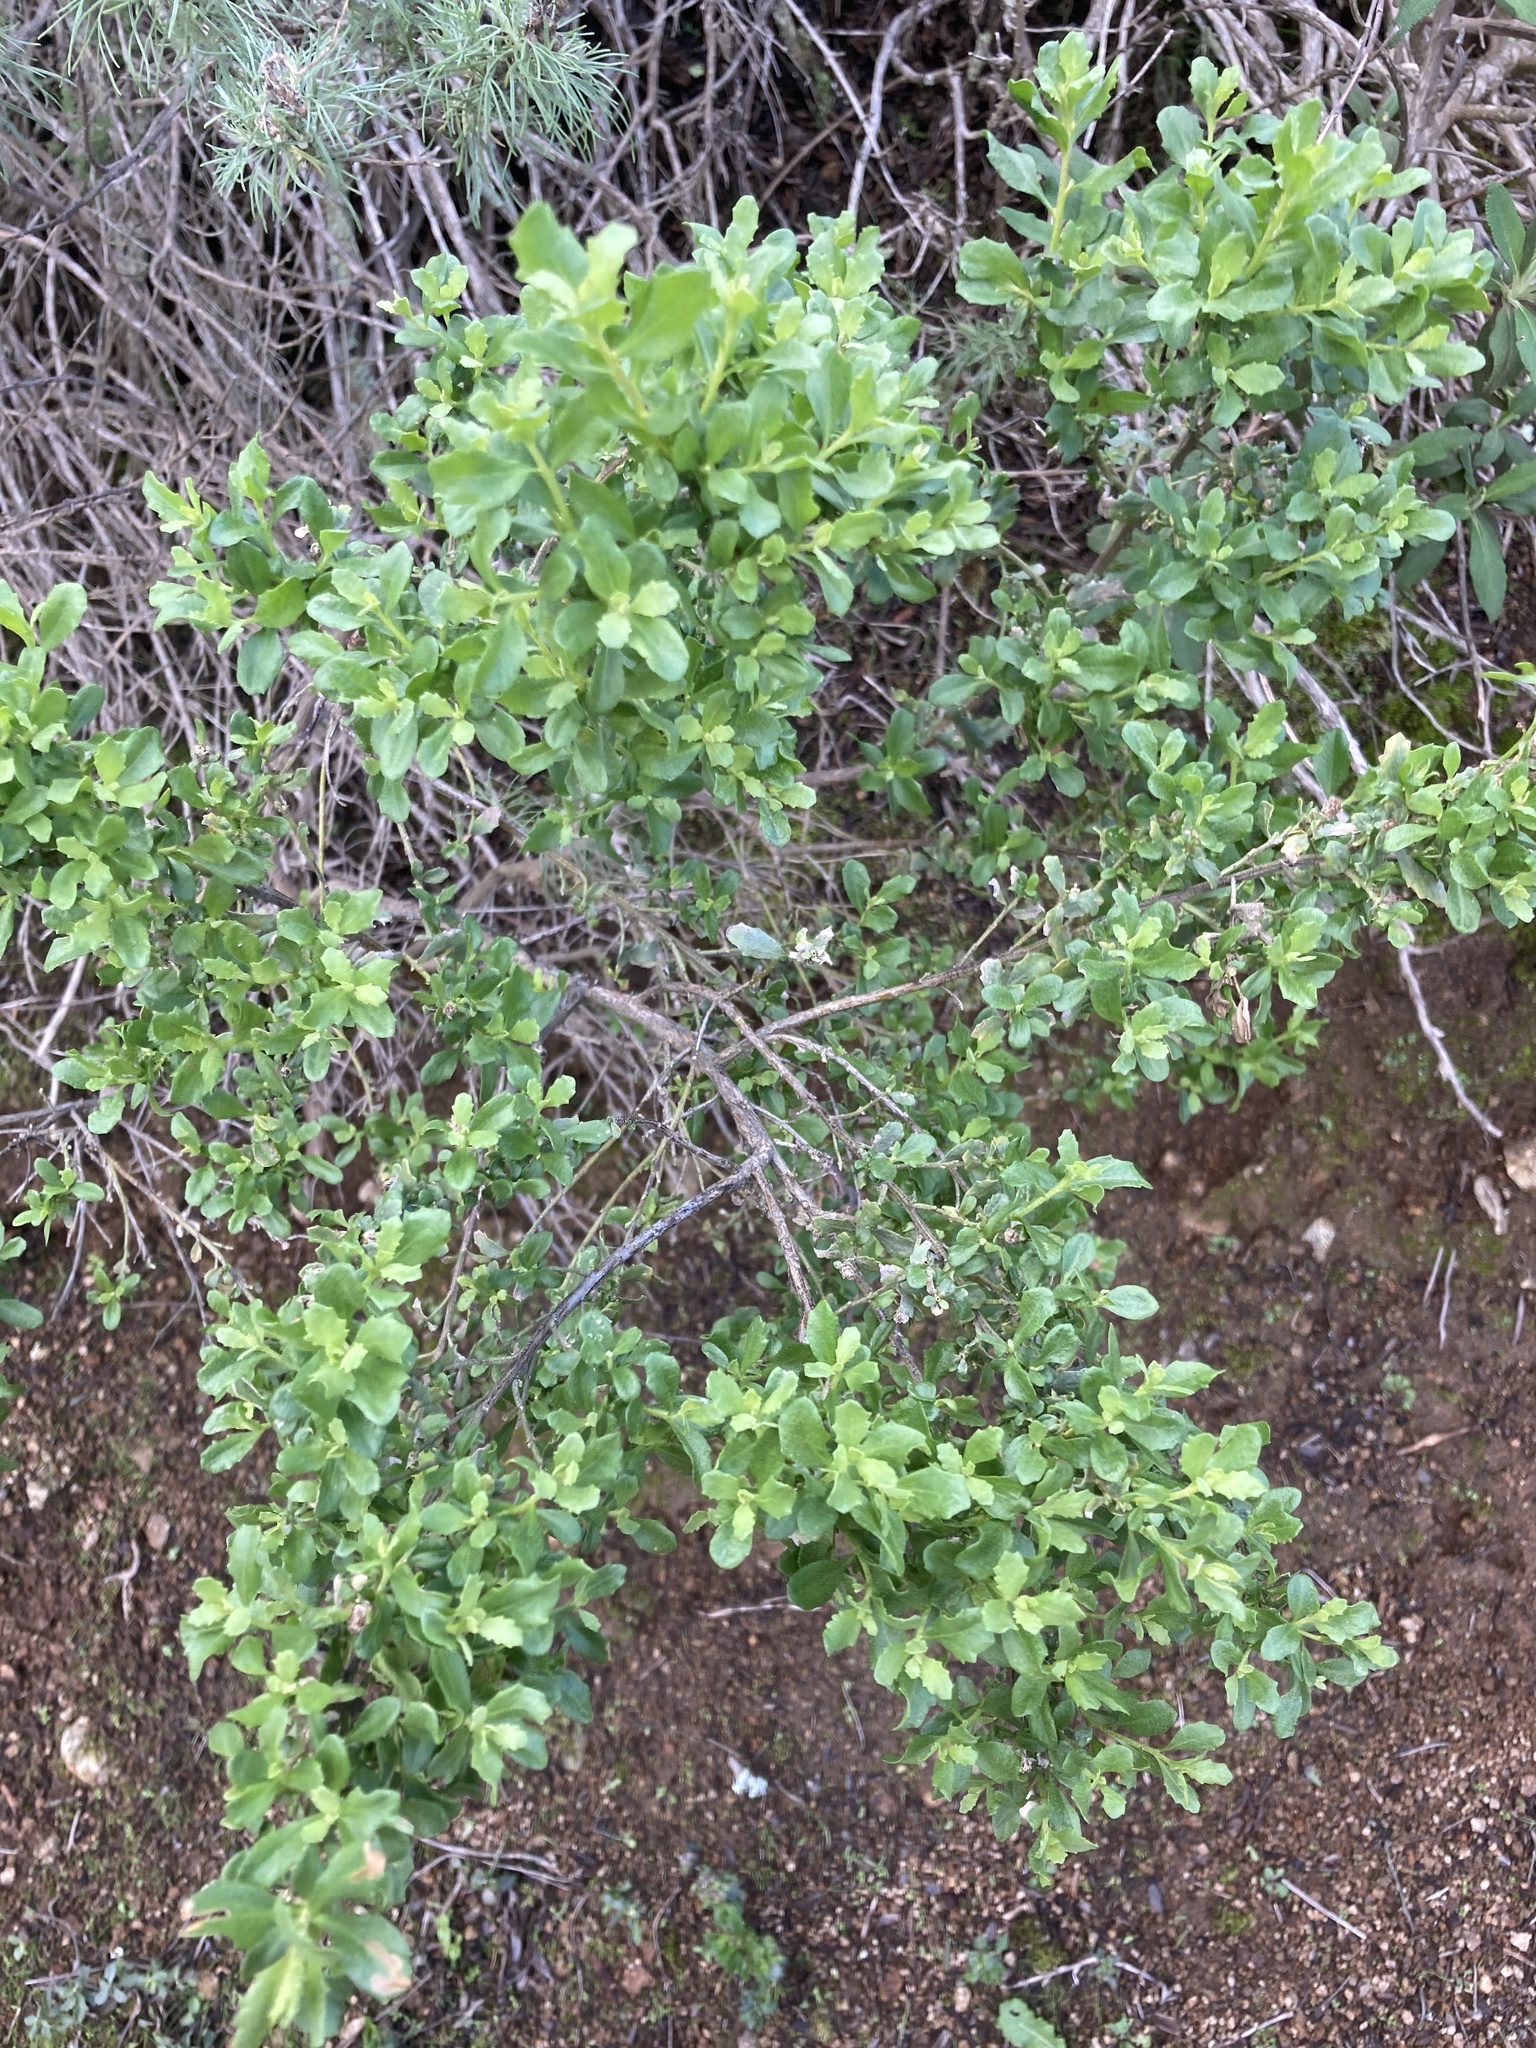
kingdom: Plantae
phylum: Tracheophyta
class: Magnoliopsida
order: Asterales
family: Asteraceae
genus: Baccharis
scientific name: Baccharis pilularis
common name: Coyotebrush
